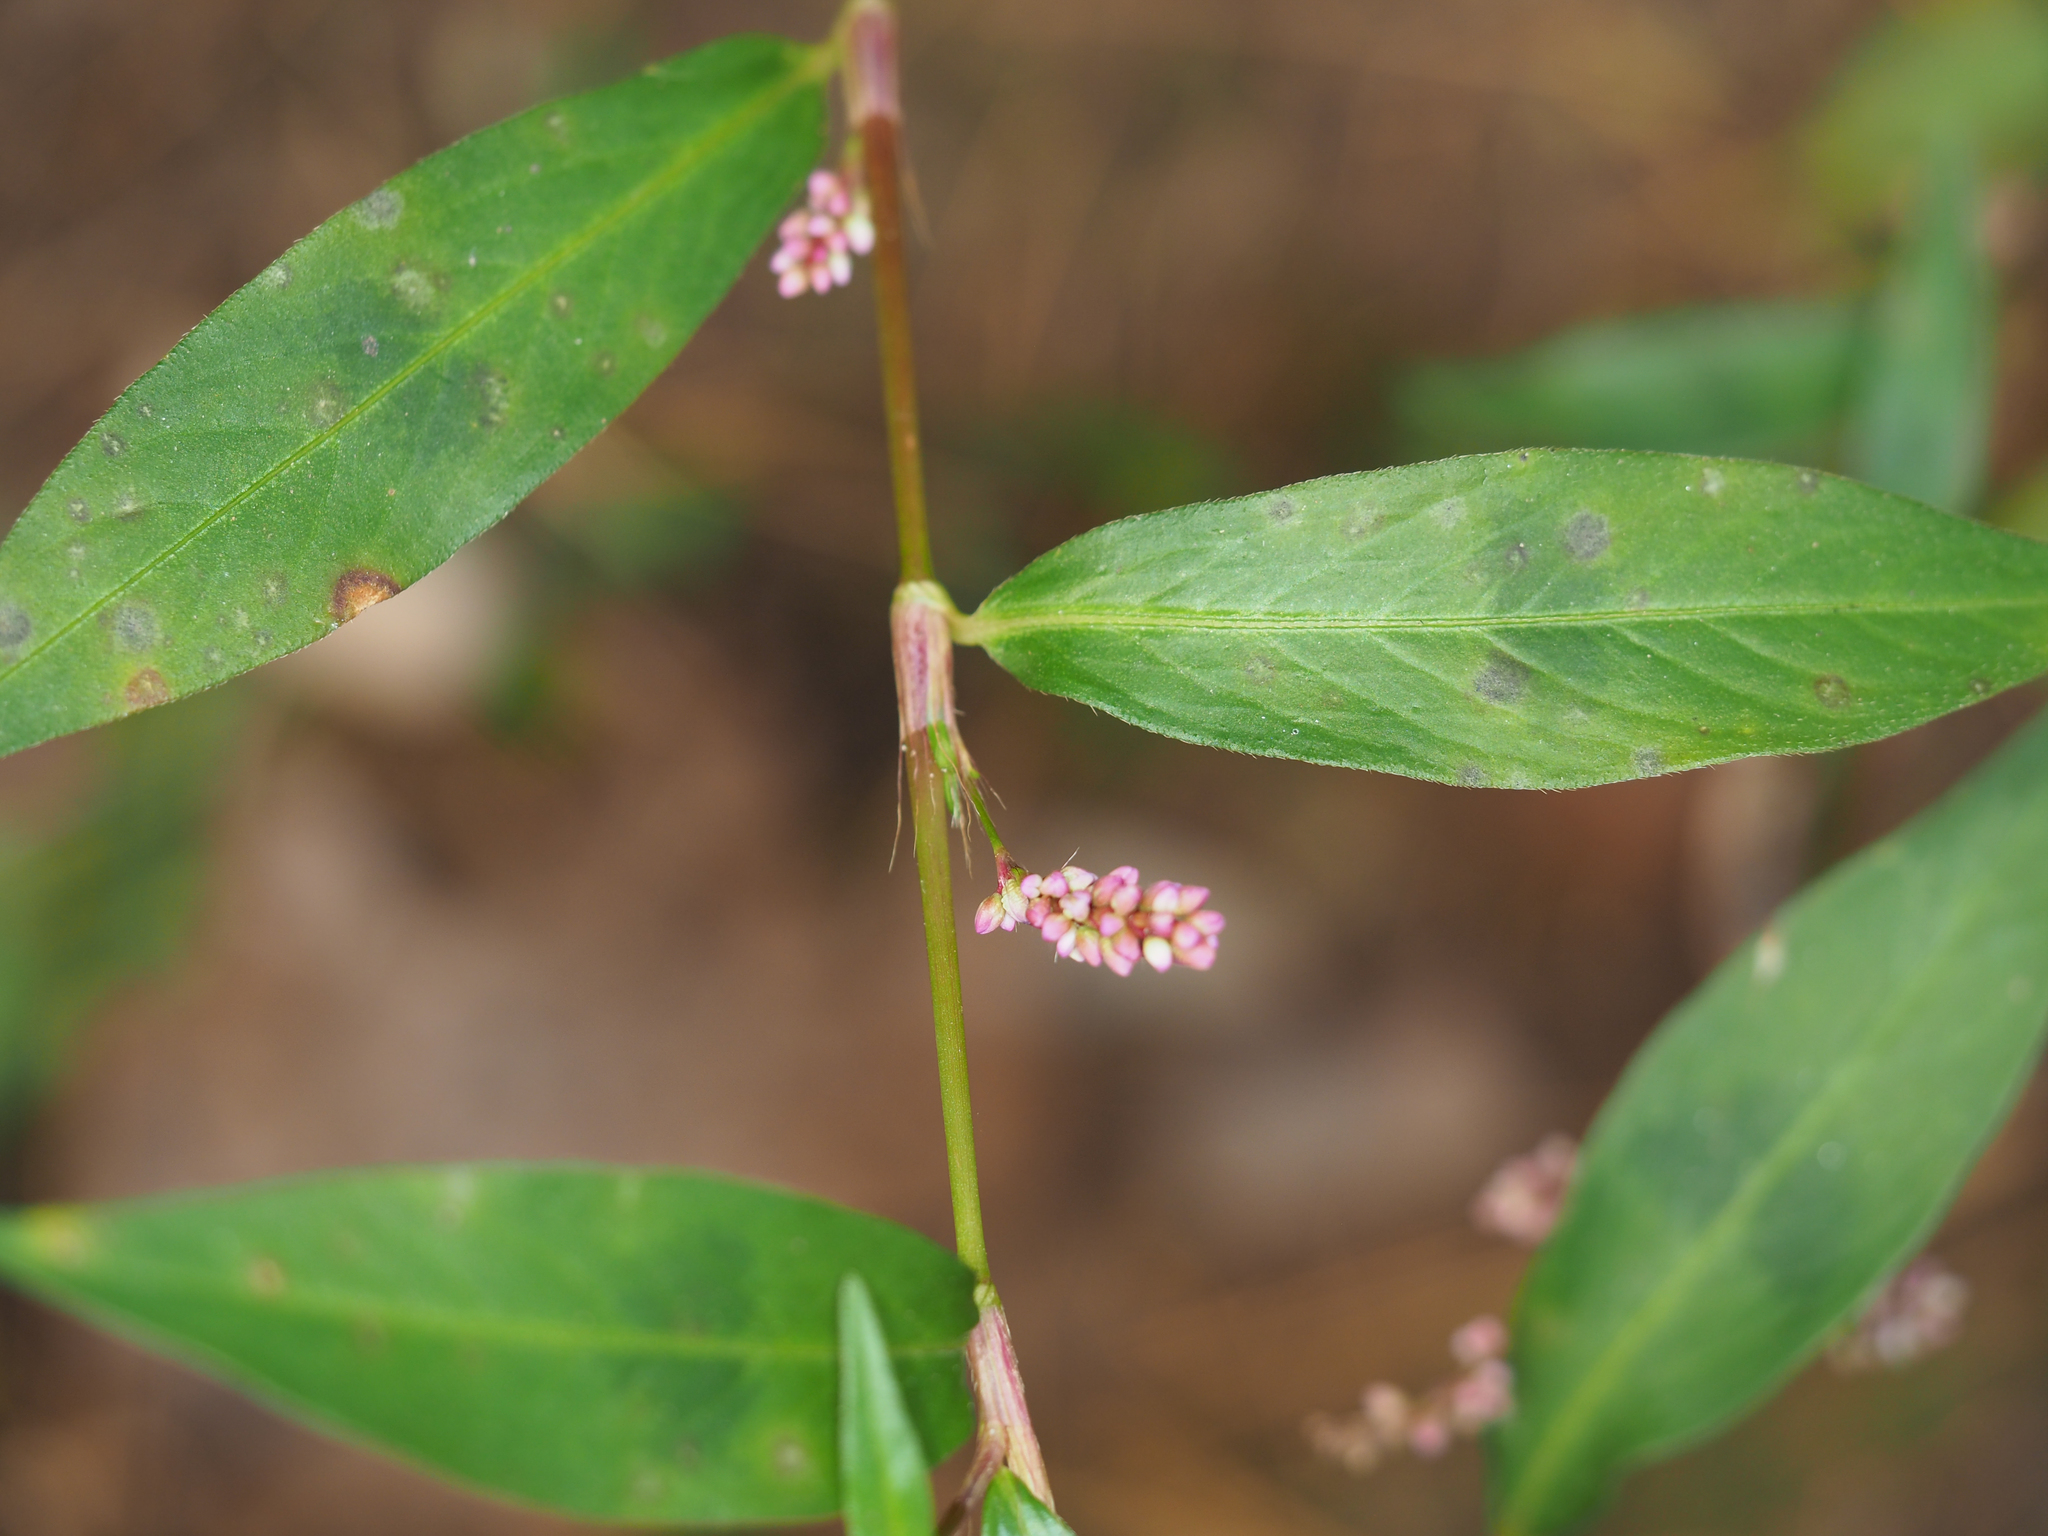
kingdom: Plantae
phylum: Tracheophyta
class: Magnoliopsida
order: Caryophyllales
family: Polygonaceae
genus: Persicaria
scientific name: Persicaria longiseta
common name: Bristly lady's-thumb
